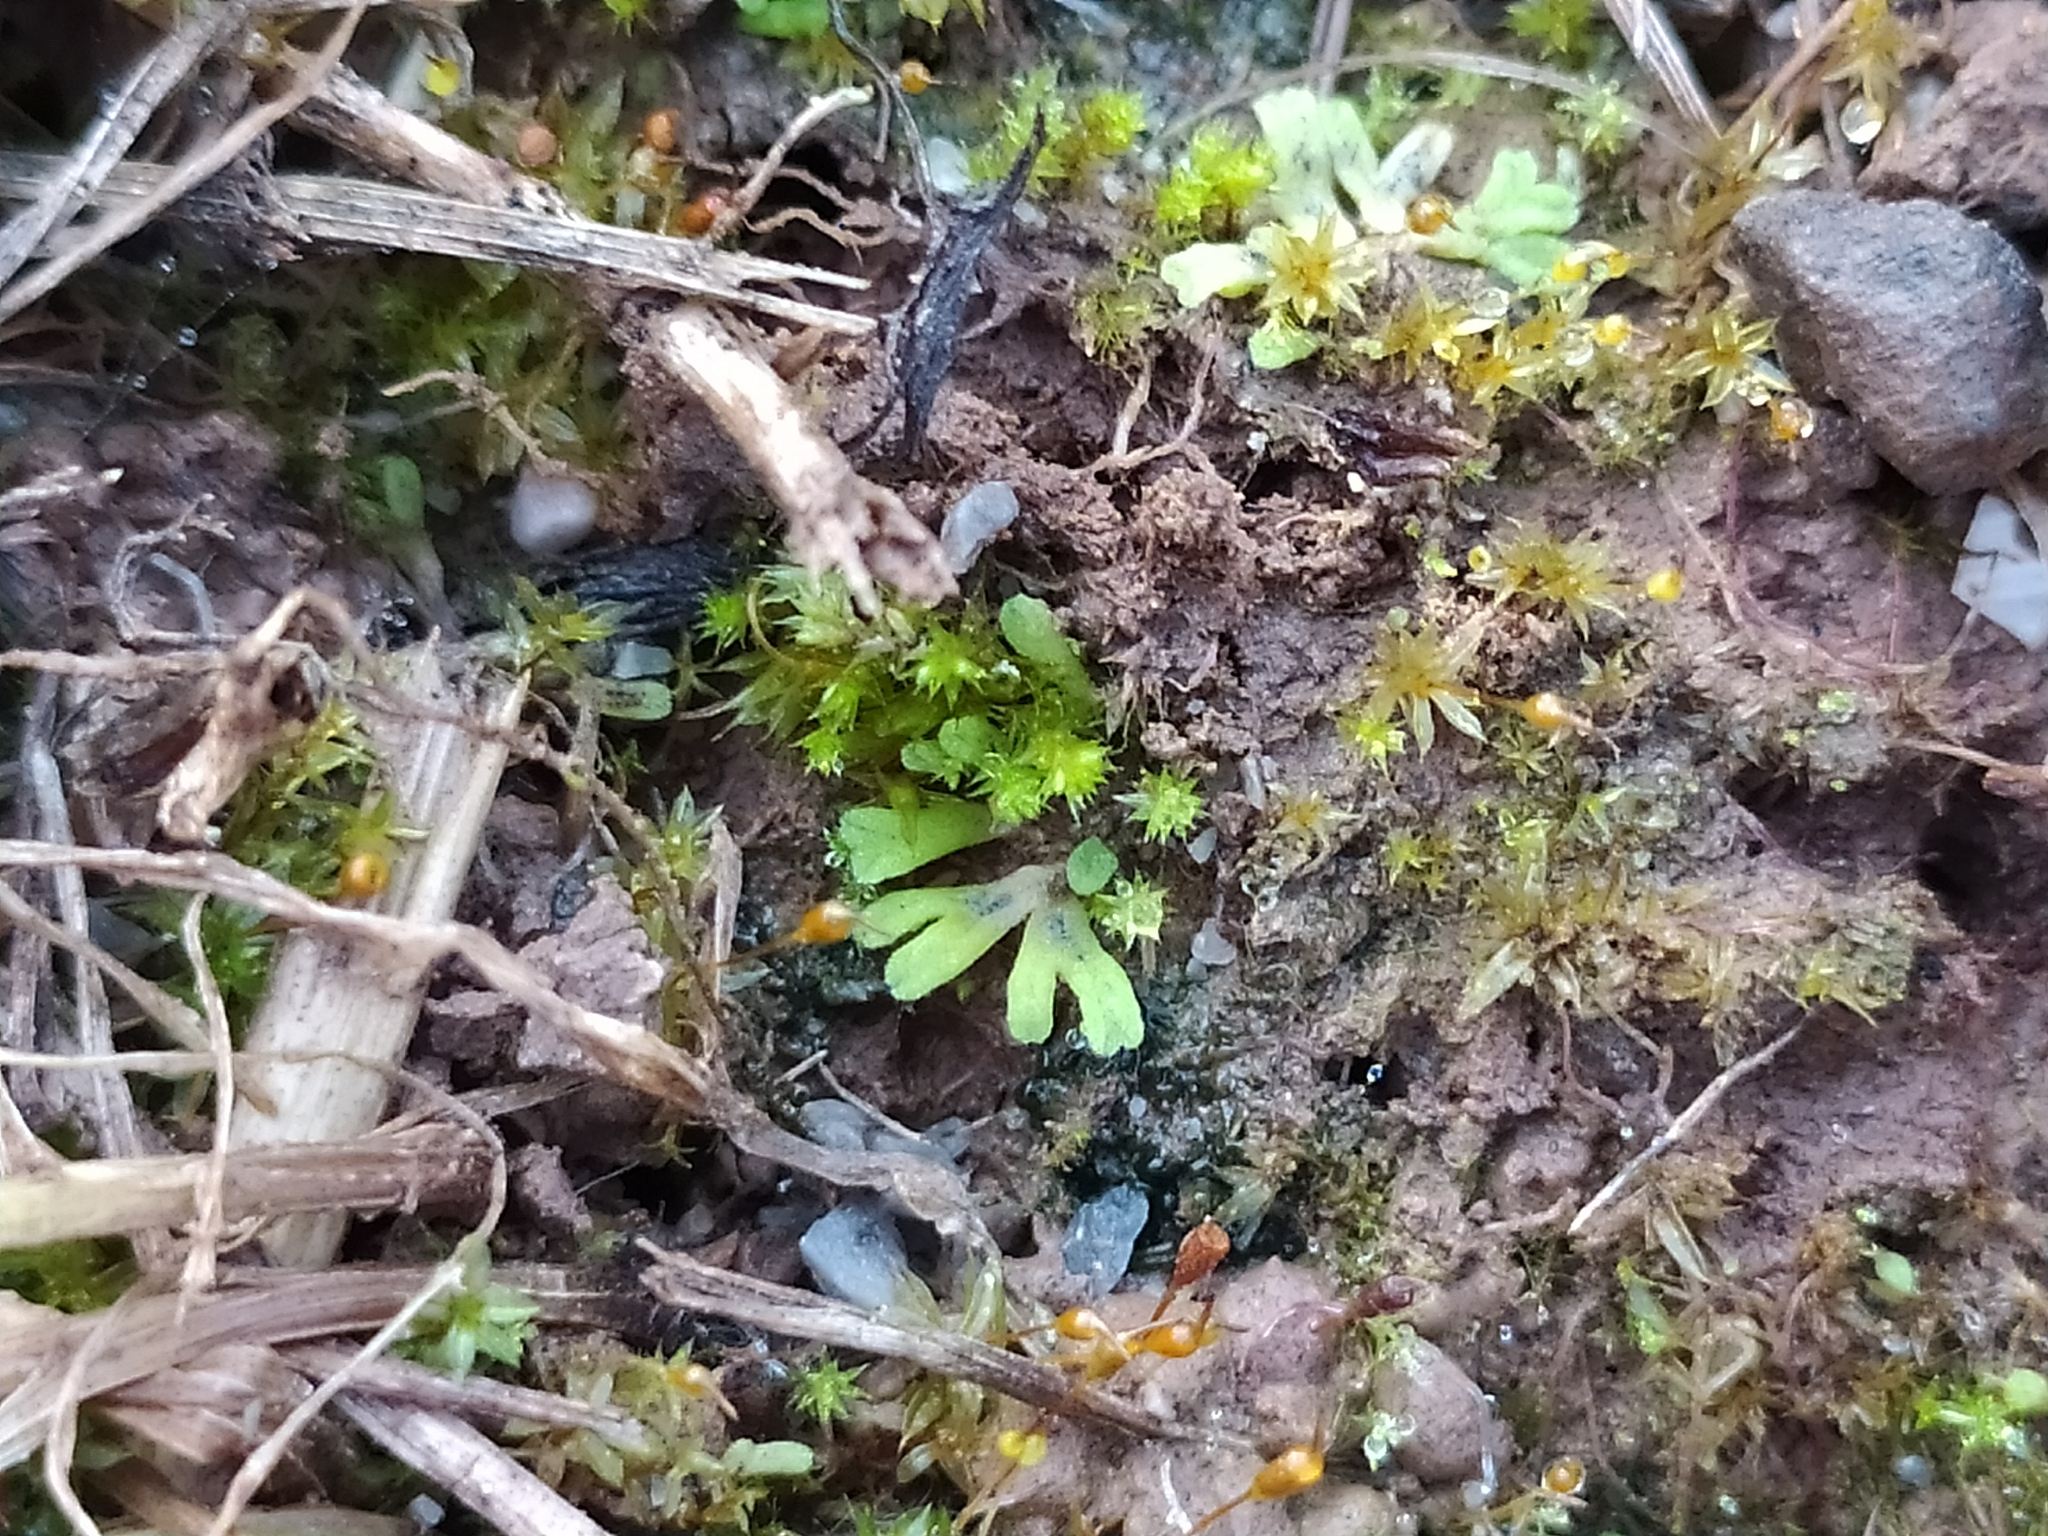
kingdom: Plantae
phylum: Marchantiophyta
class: Marchantiopsida
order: Marchantiales
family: Ricciaceae
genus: Riccia
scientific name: Riccia warnstorfii
